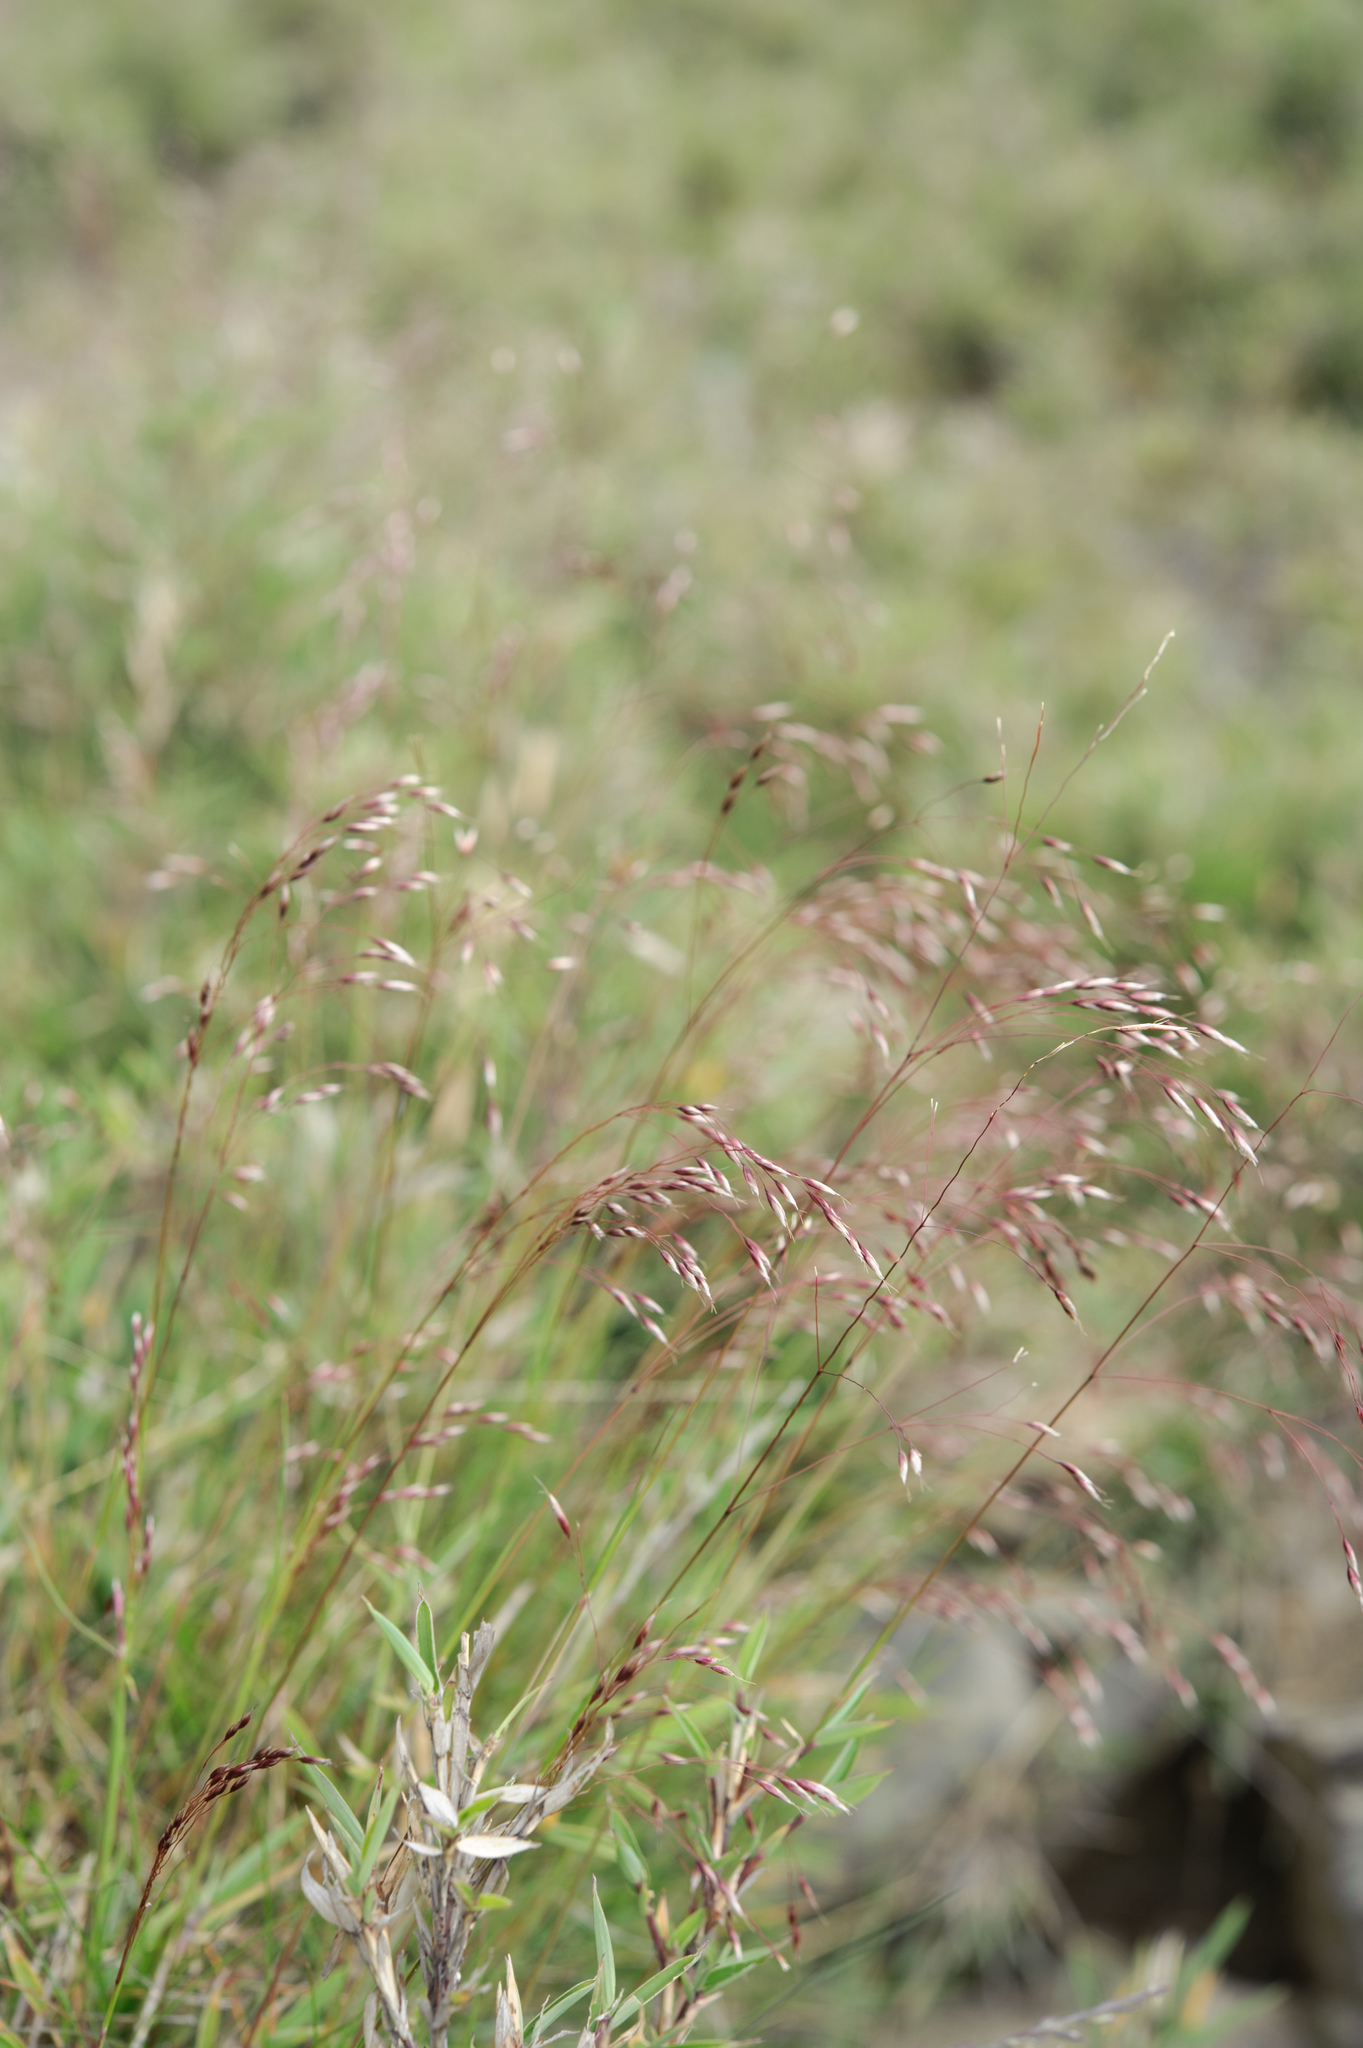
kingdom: Plantae
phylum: Tracheophyta
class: Liliopsida
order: Poales
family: Poaceae
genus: Avenella
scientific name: Avenella flexuosa
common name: Wavy hairgrass
